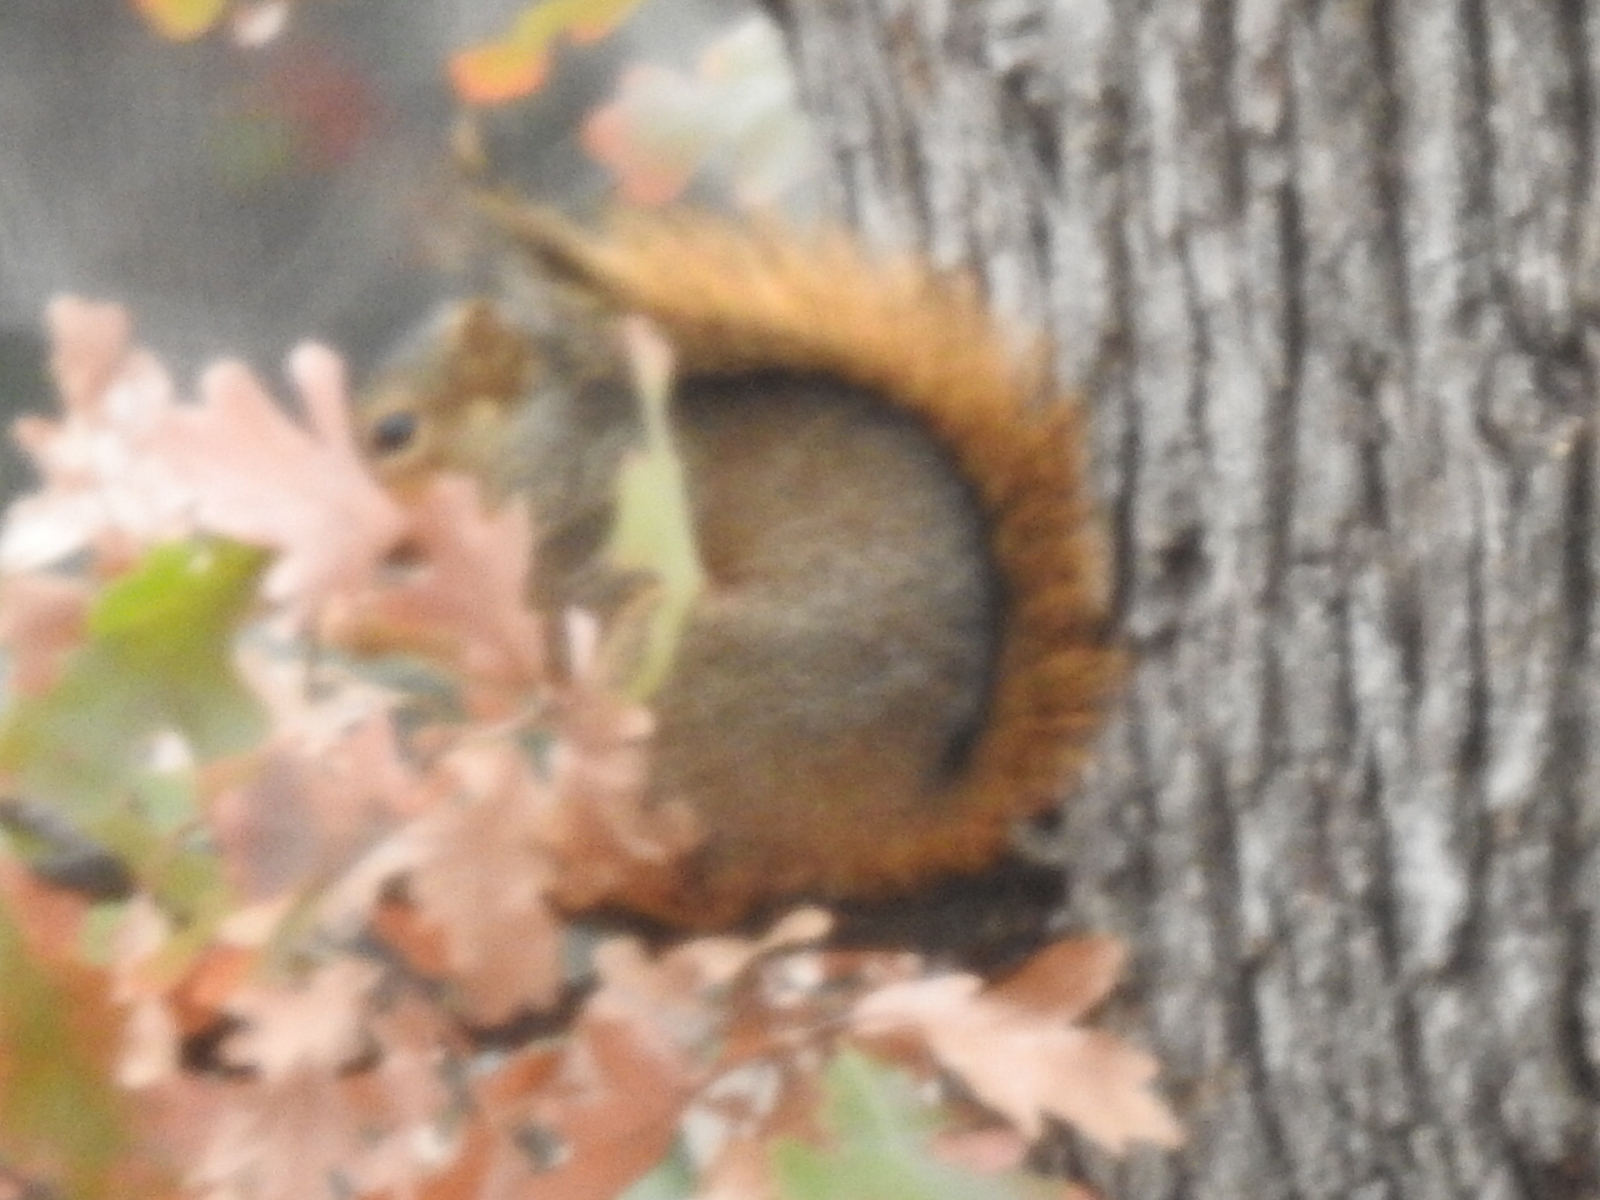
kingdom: Animalia
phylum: Chordata
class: Mammalia
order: Rodentia
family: Sciuridae
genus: Sciurus
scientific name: Sciurus niger
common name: Fox squirrel
